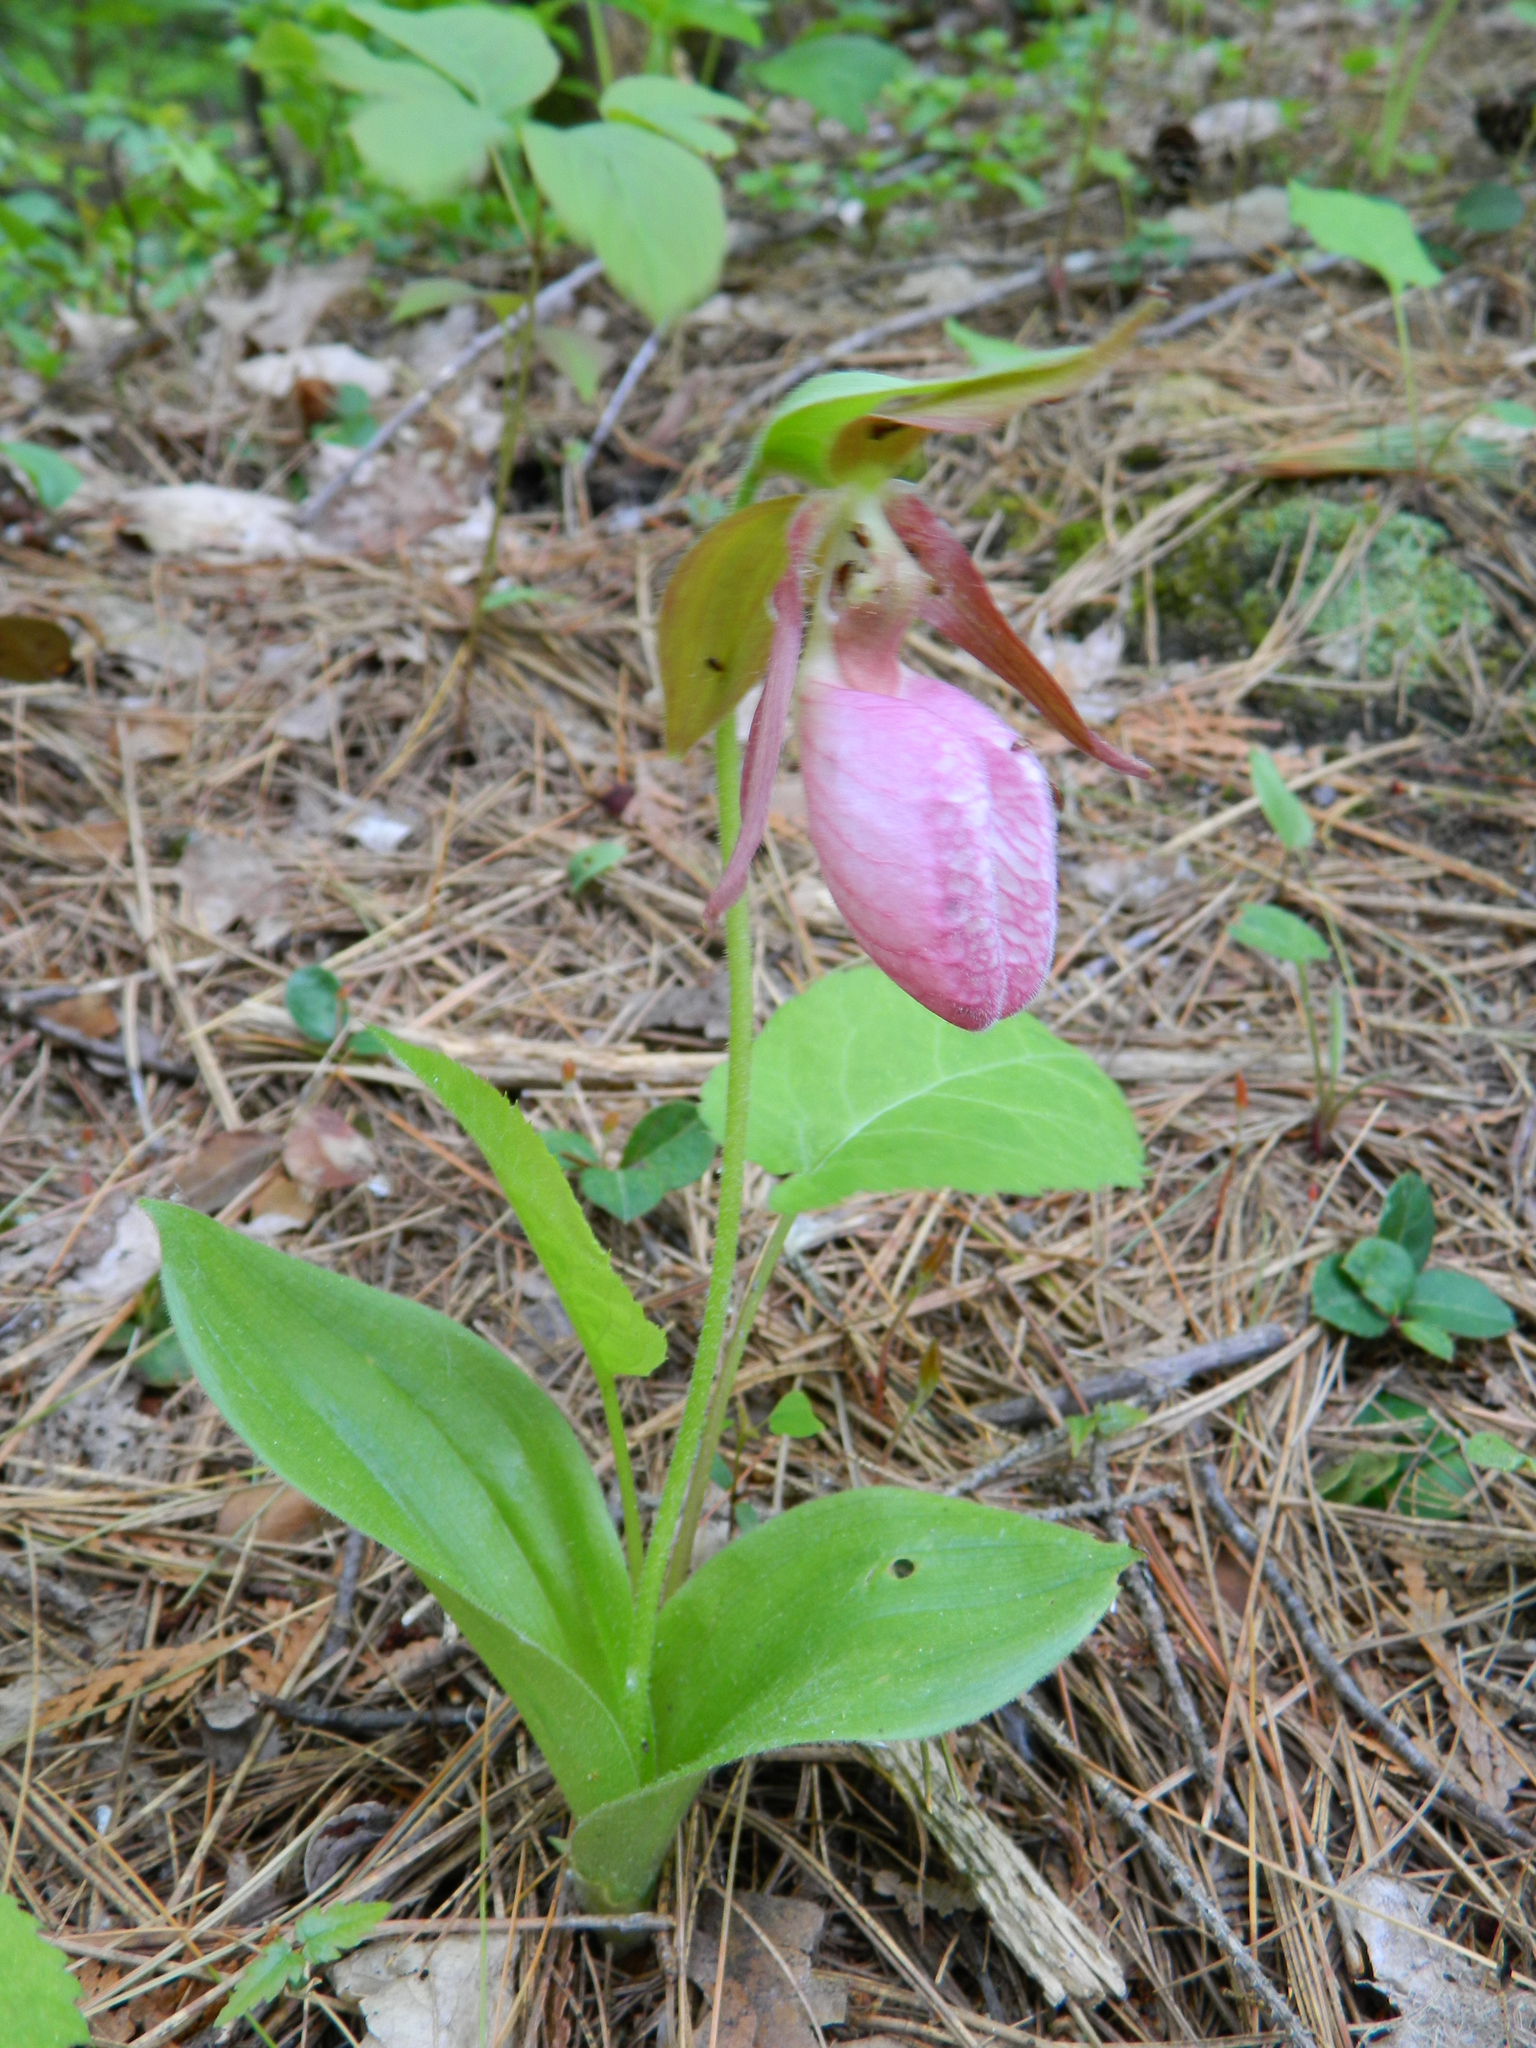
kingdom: Plantae
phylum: Tracheophyta
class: Liliopsida
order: Asparagales
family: Orchidaceae
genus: Cypripedium
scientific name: Cypripedium acaule
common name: Pink lady's-slipper
